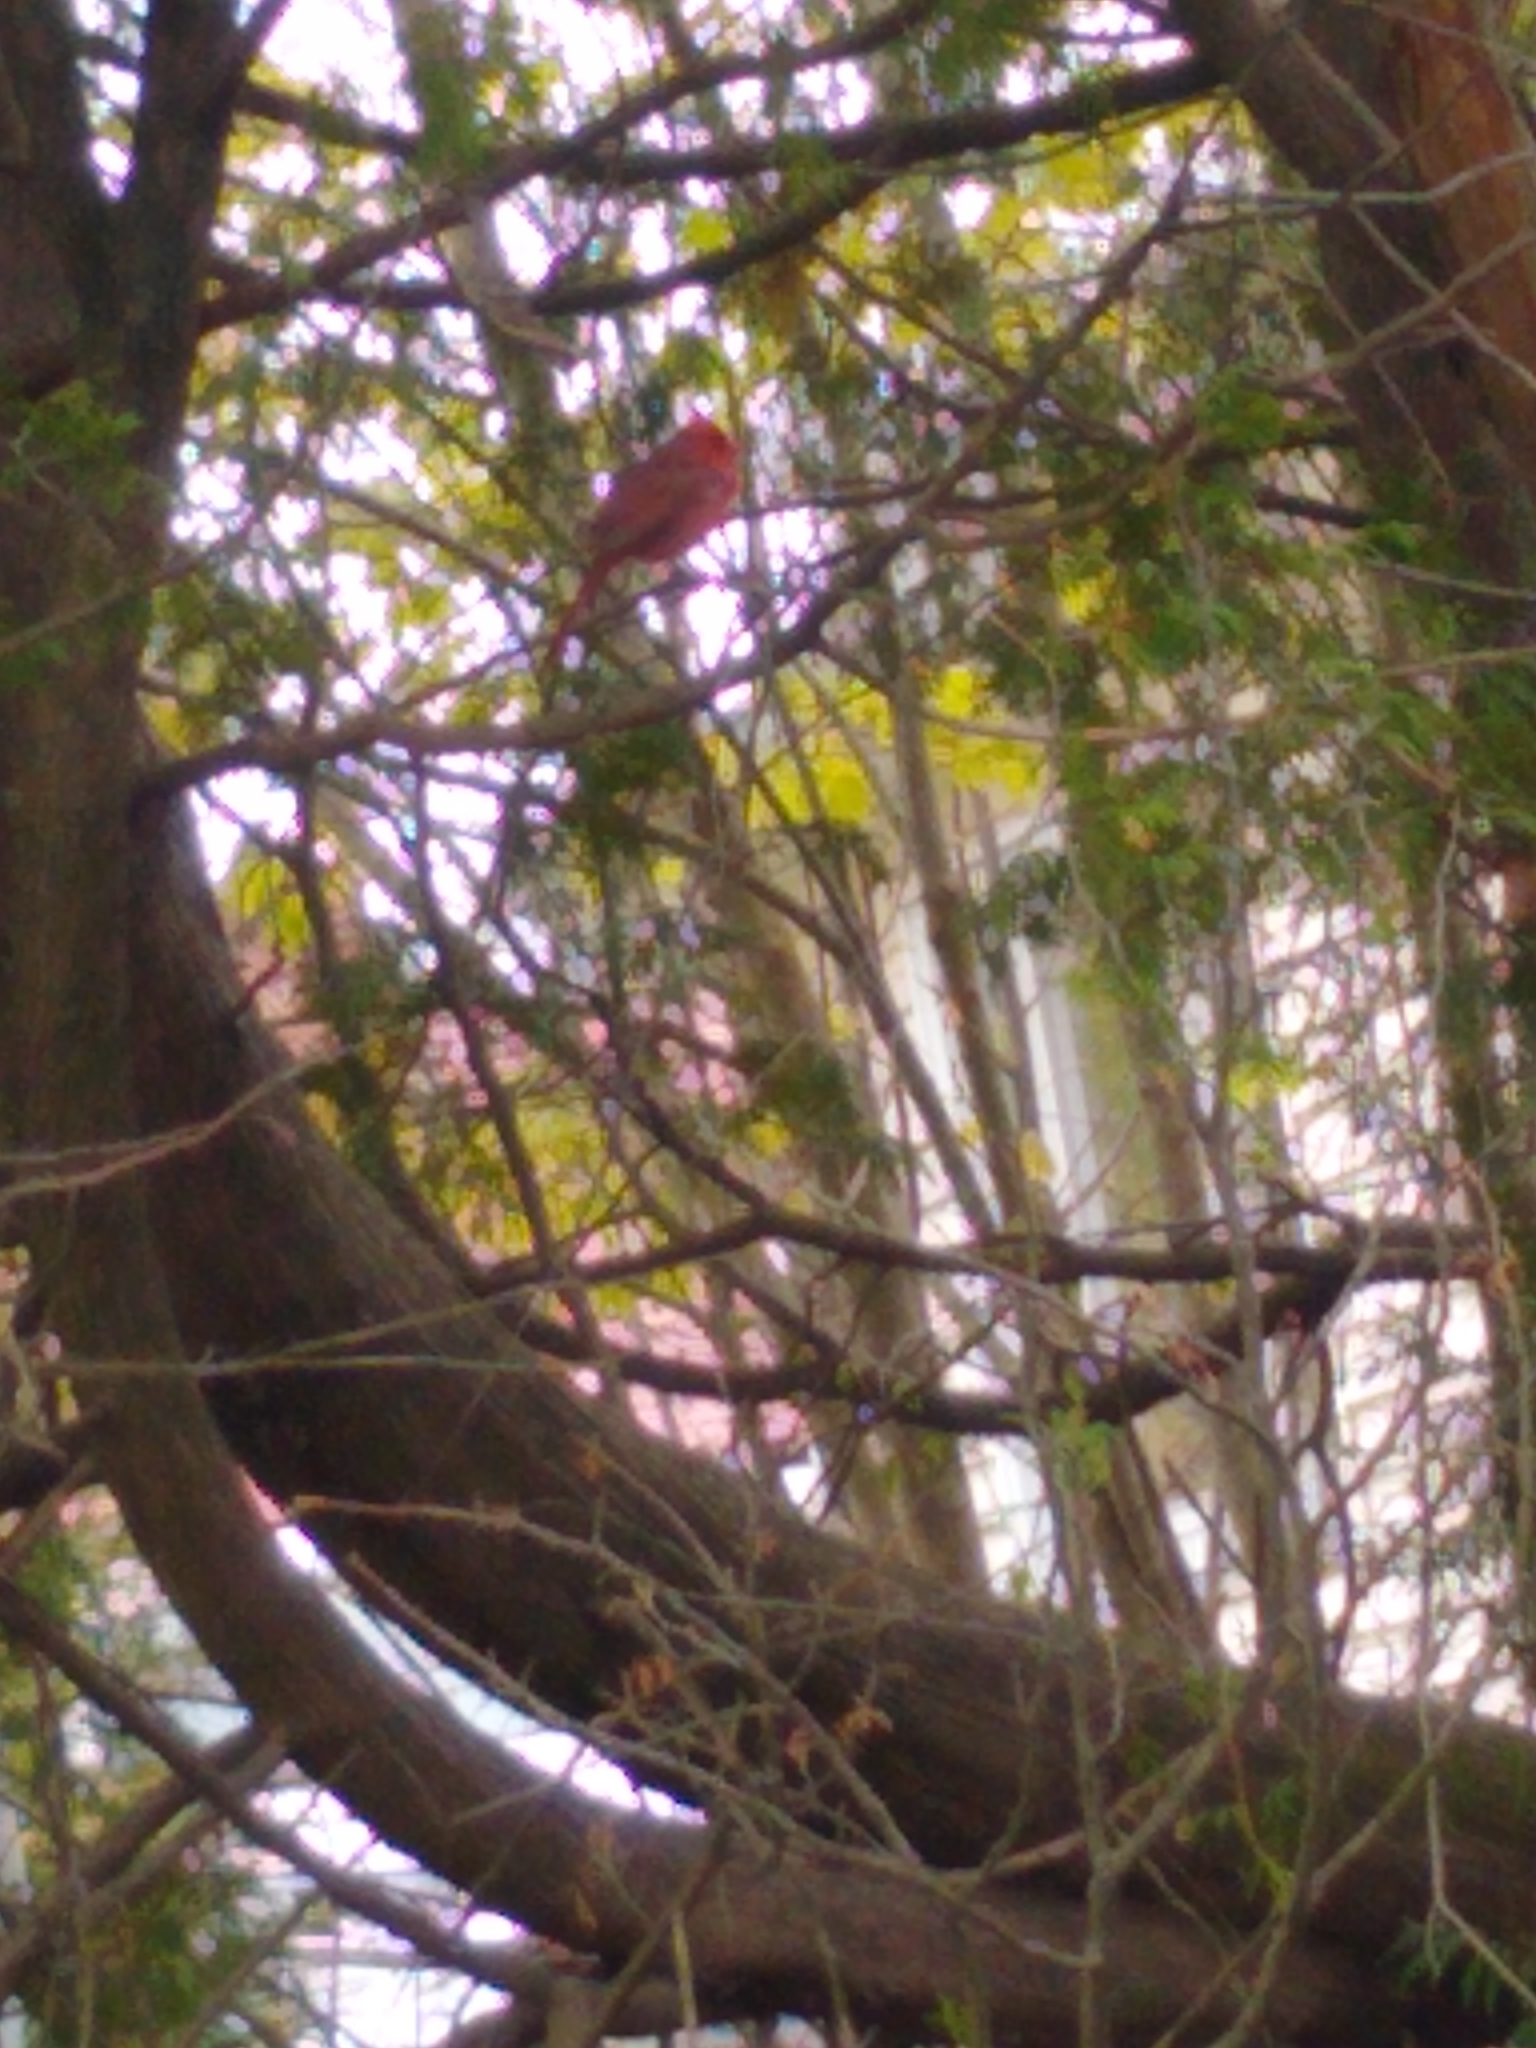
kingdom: Animalia
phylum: Chordata
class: Aves
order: Passeriformes
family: Cardinalidae
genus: Cardinalis
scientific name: Cardinalis cardinalis
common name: Northern cardinal
